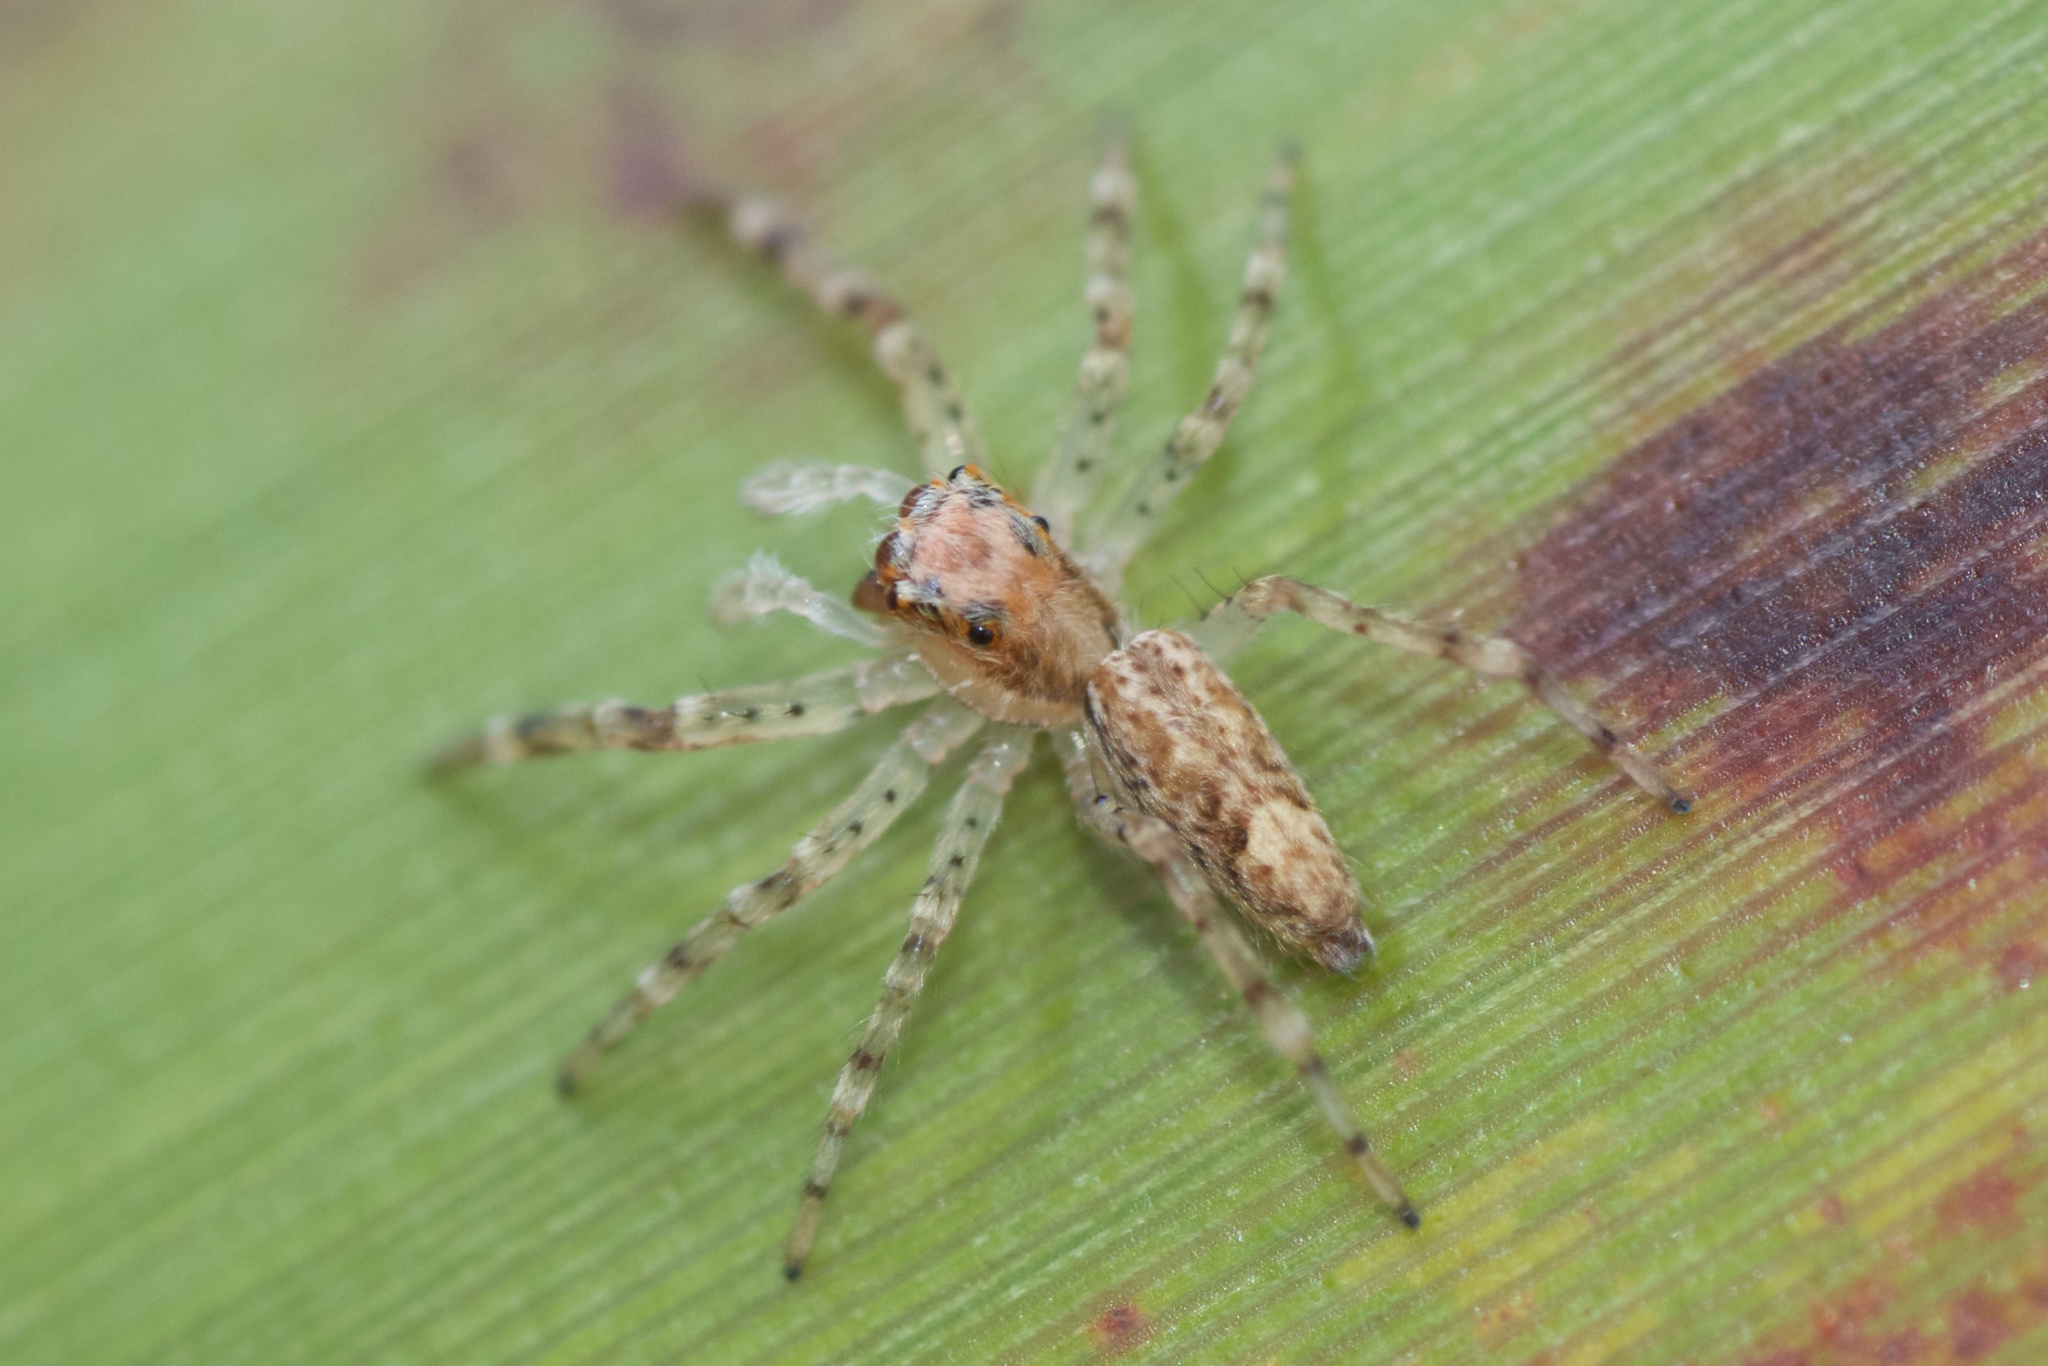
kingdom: Animalia
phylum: Arthropoda
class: Arachnida
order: Araneae
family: Salticidae
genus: Helpis
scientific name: Helpis minitabunda
